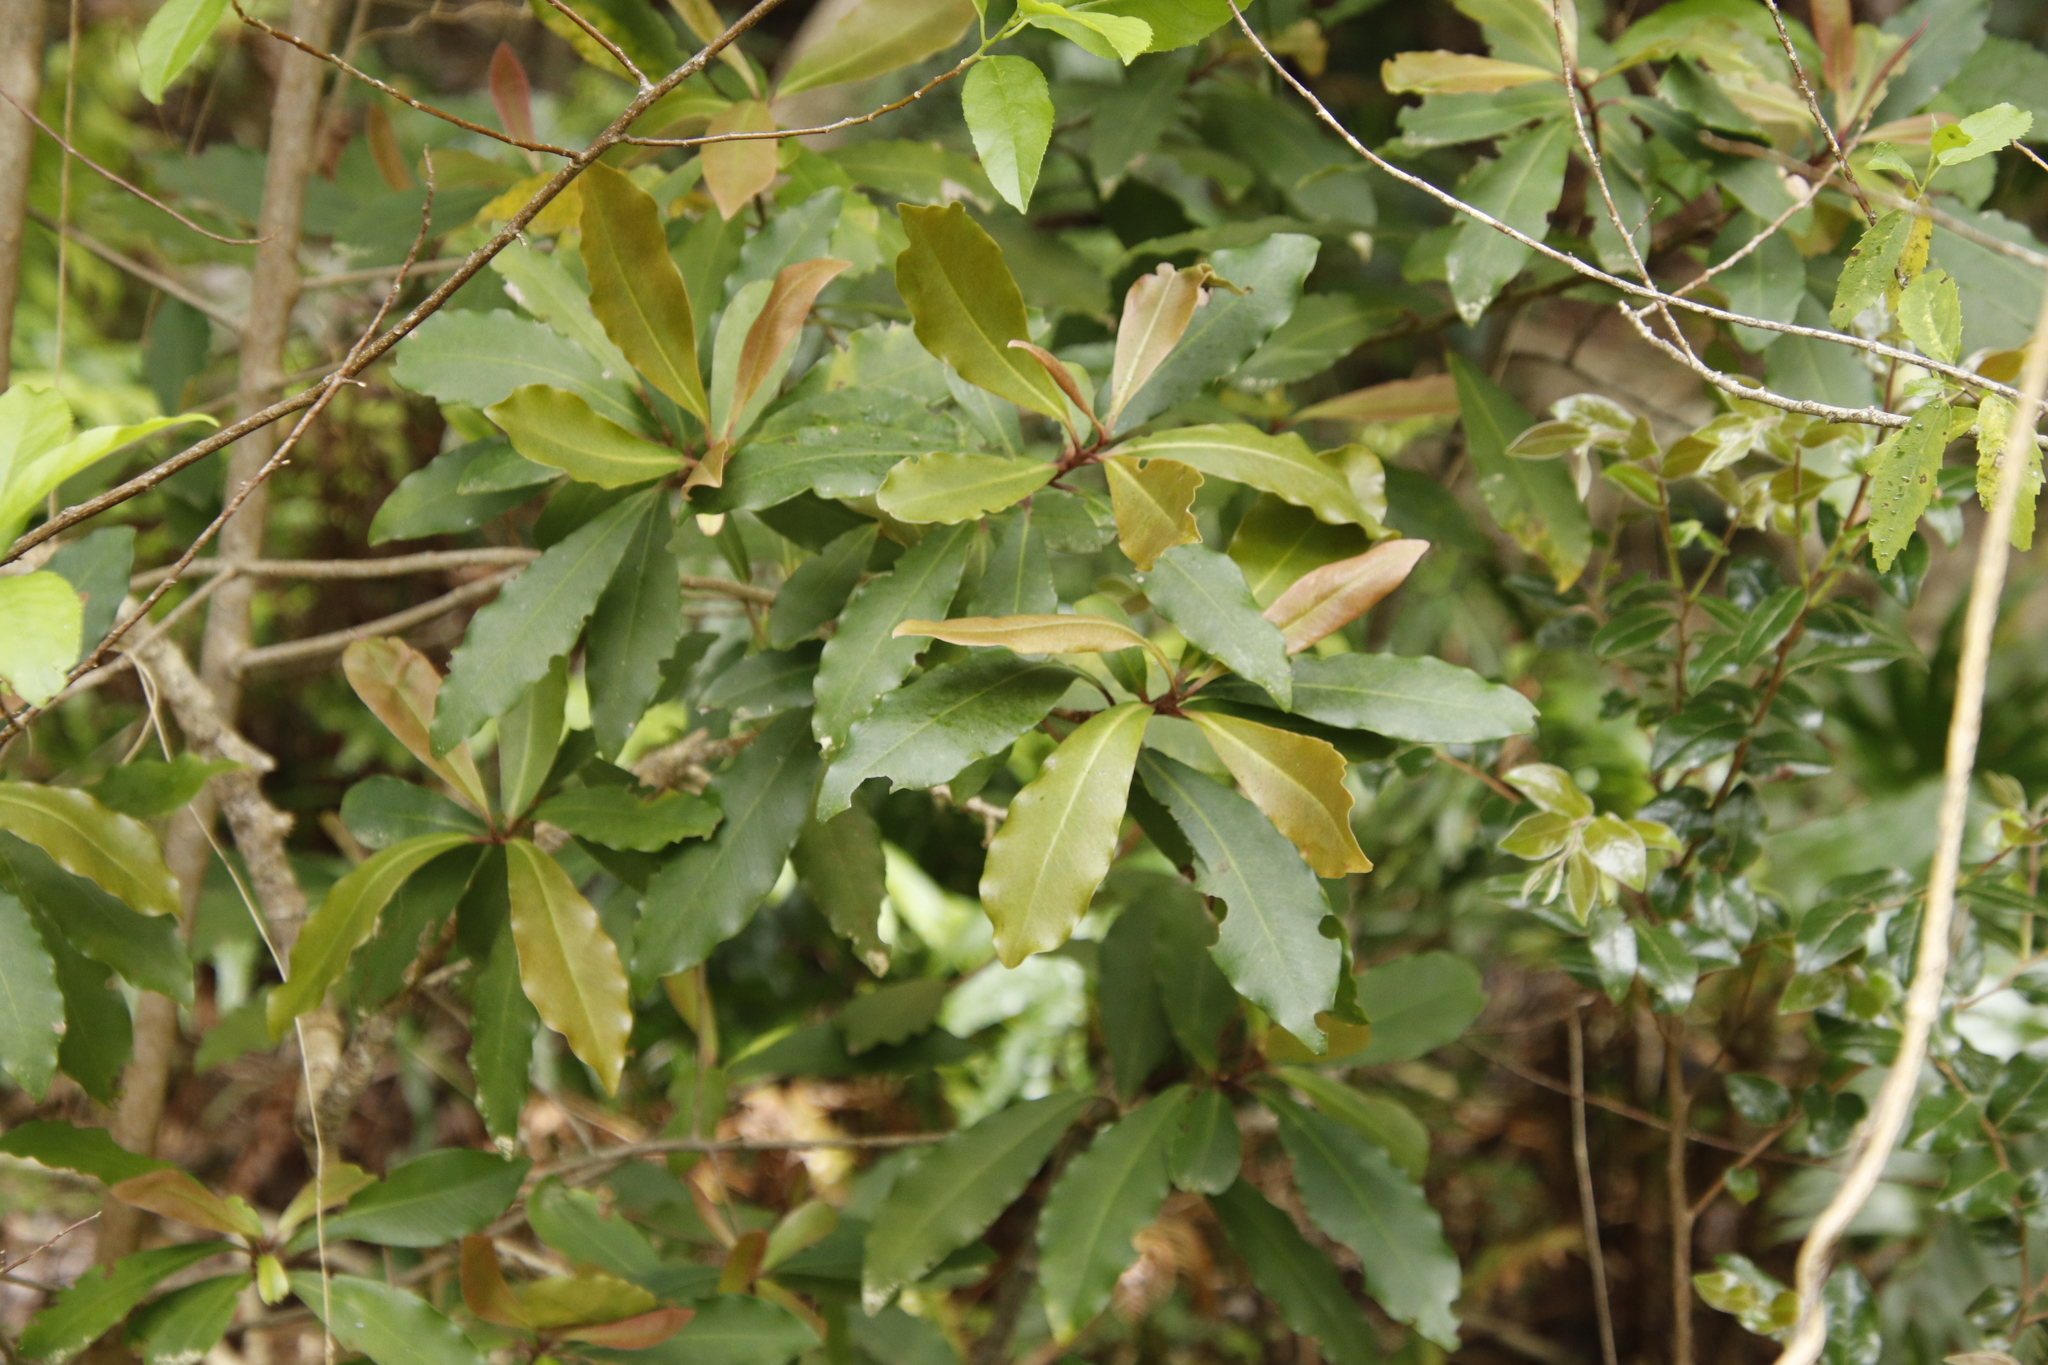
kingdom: Plantae
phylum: Tracheophyta
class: Magnoliopsida
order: Ericales
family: Primulaceae
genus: Myrsine
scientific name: Myrsine melanophloeos
